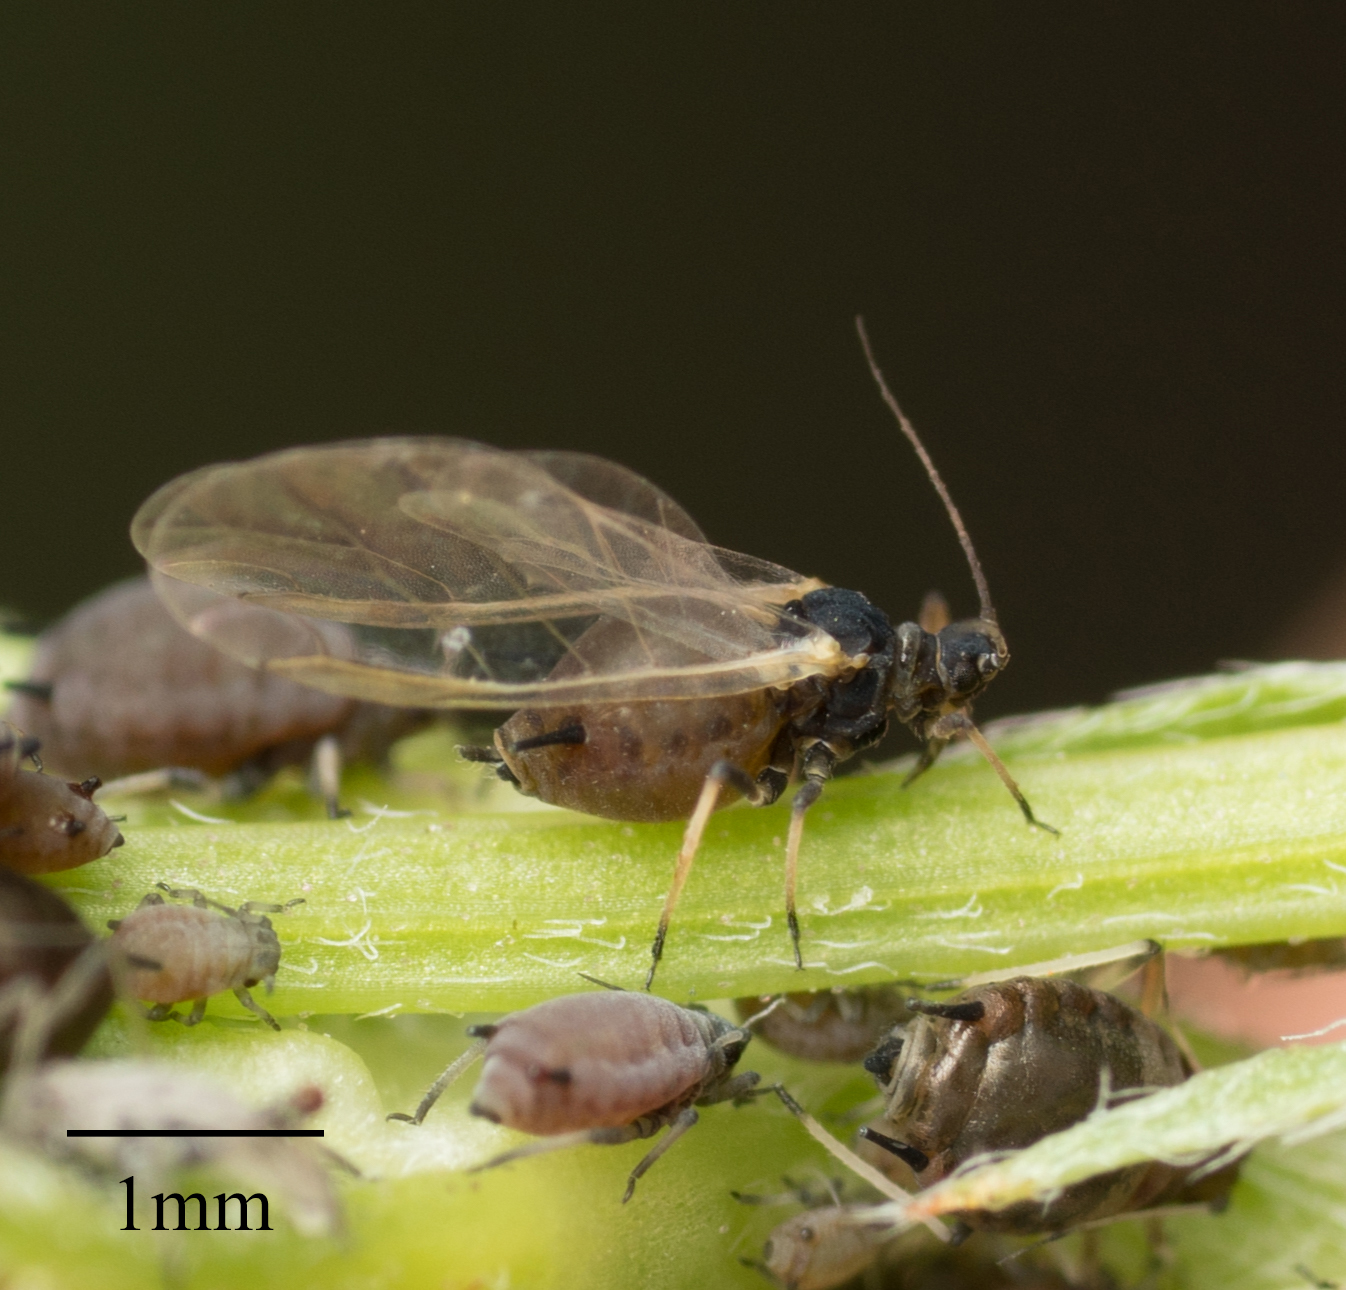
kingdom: Animalia
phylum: Arthropoda
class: Insecta
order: Hemiptera
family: Aphididae
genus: Aphis
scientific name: Aphis craccivora
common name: Cowpea aphid
